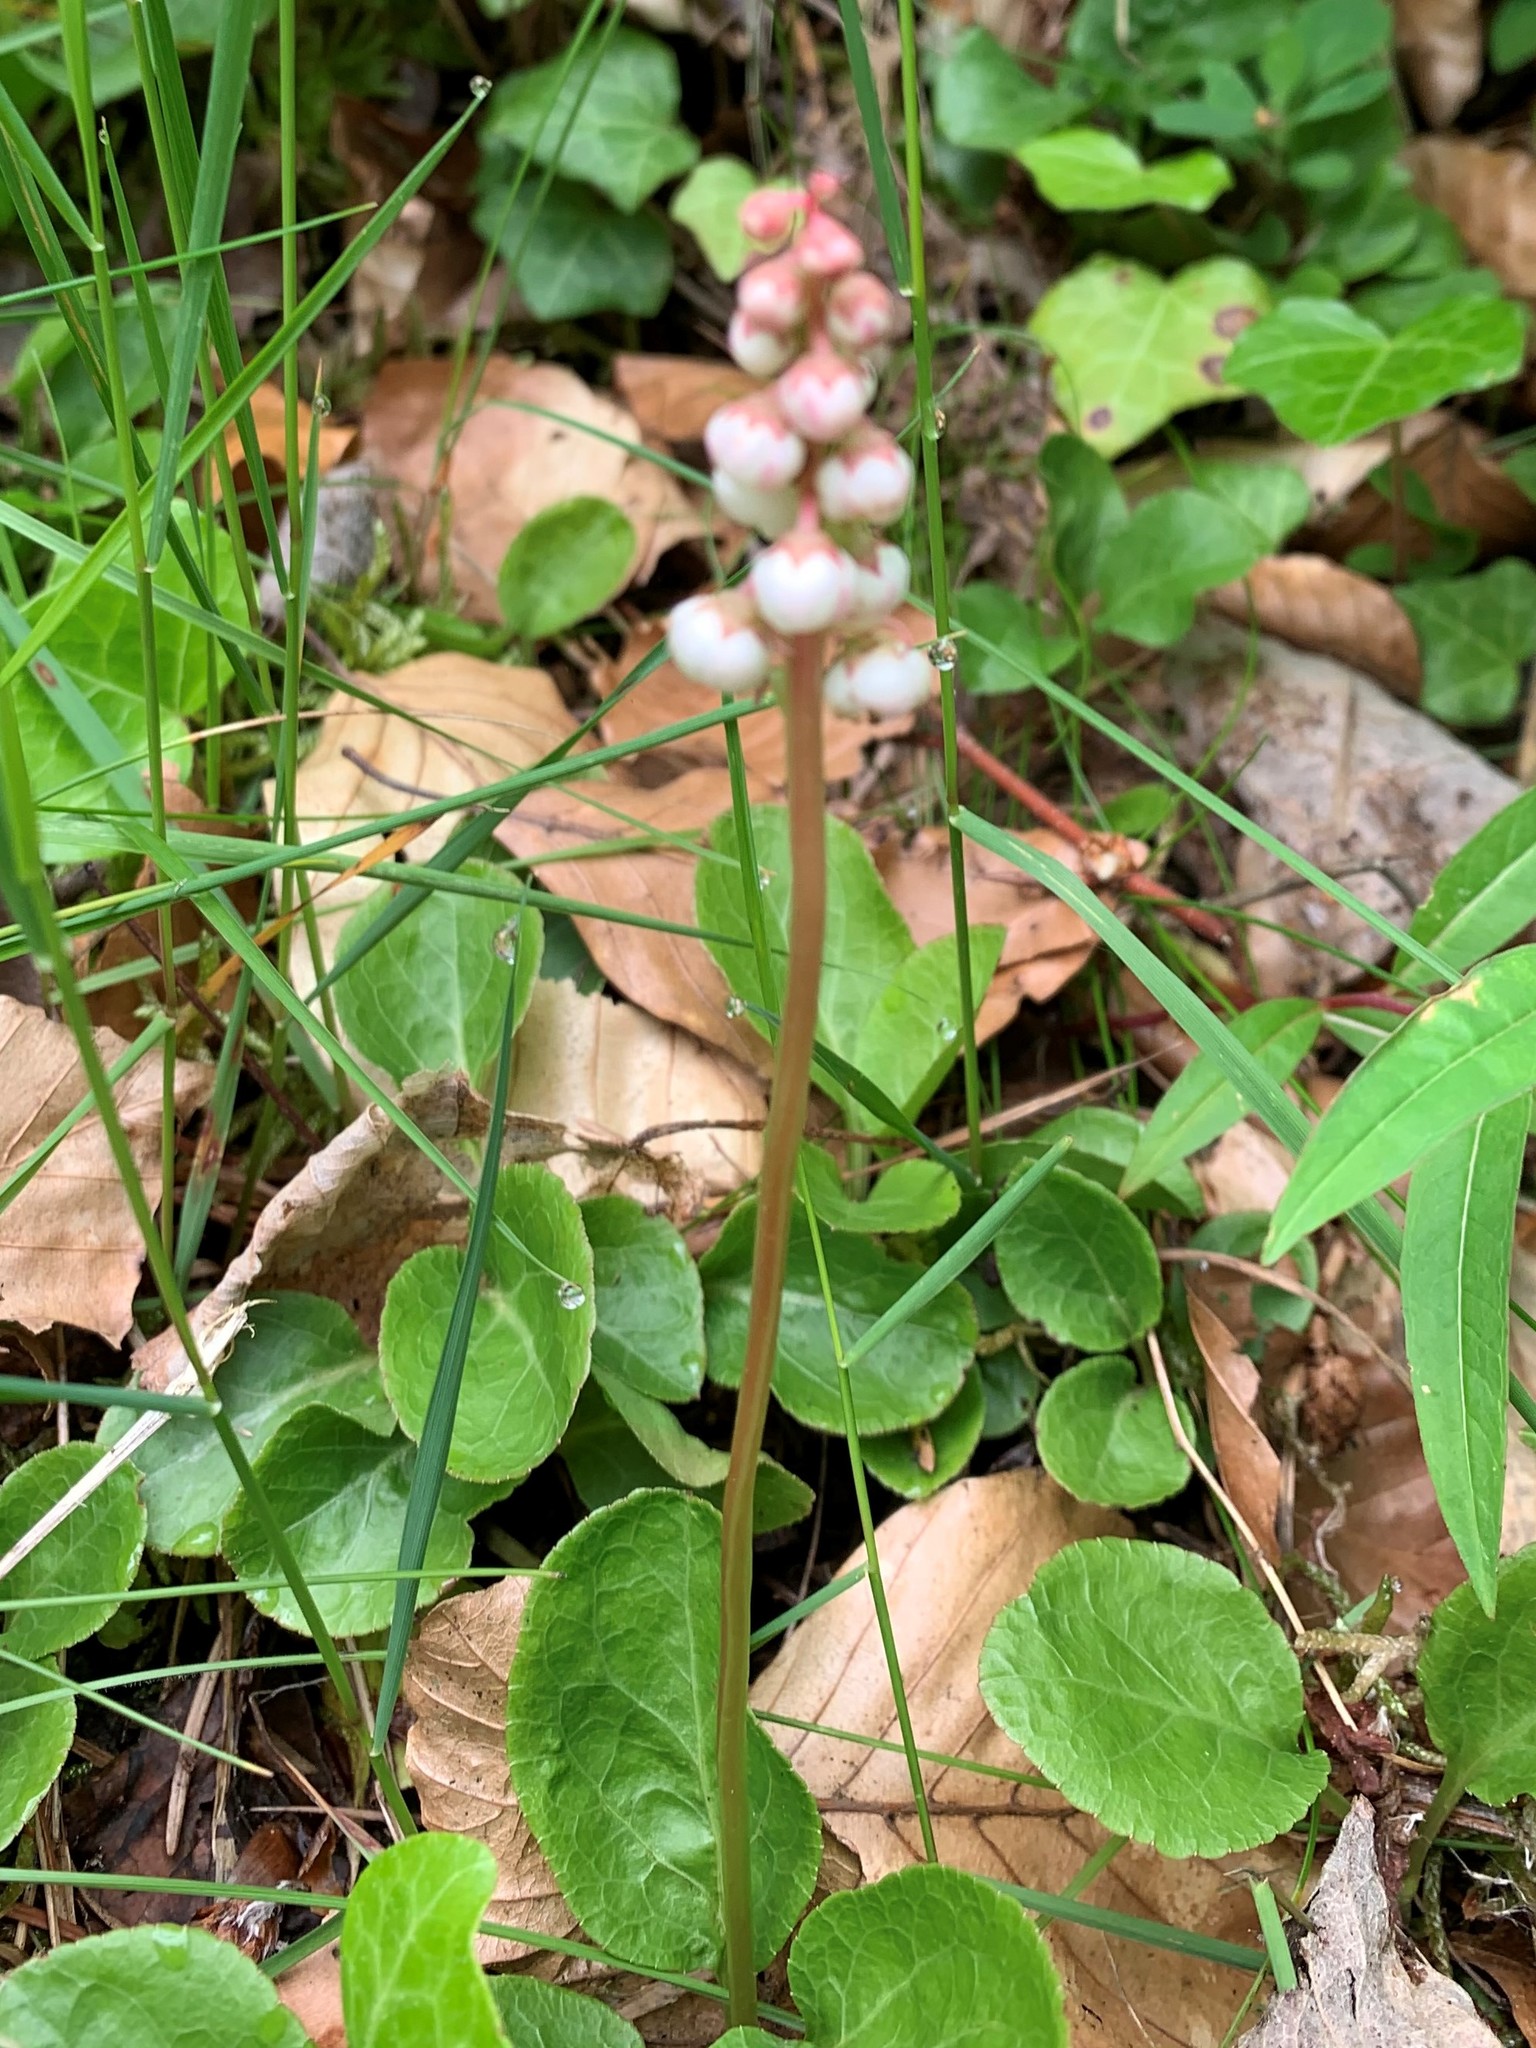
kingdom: Plantae
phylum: Tracheophyta
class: Magnoliopsida
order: Ericales
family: Ericaceae
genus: Pyrola
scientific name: Pyrola minor
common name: Common wintergreen
